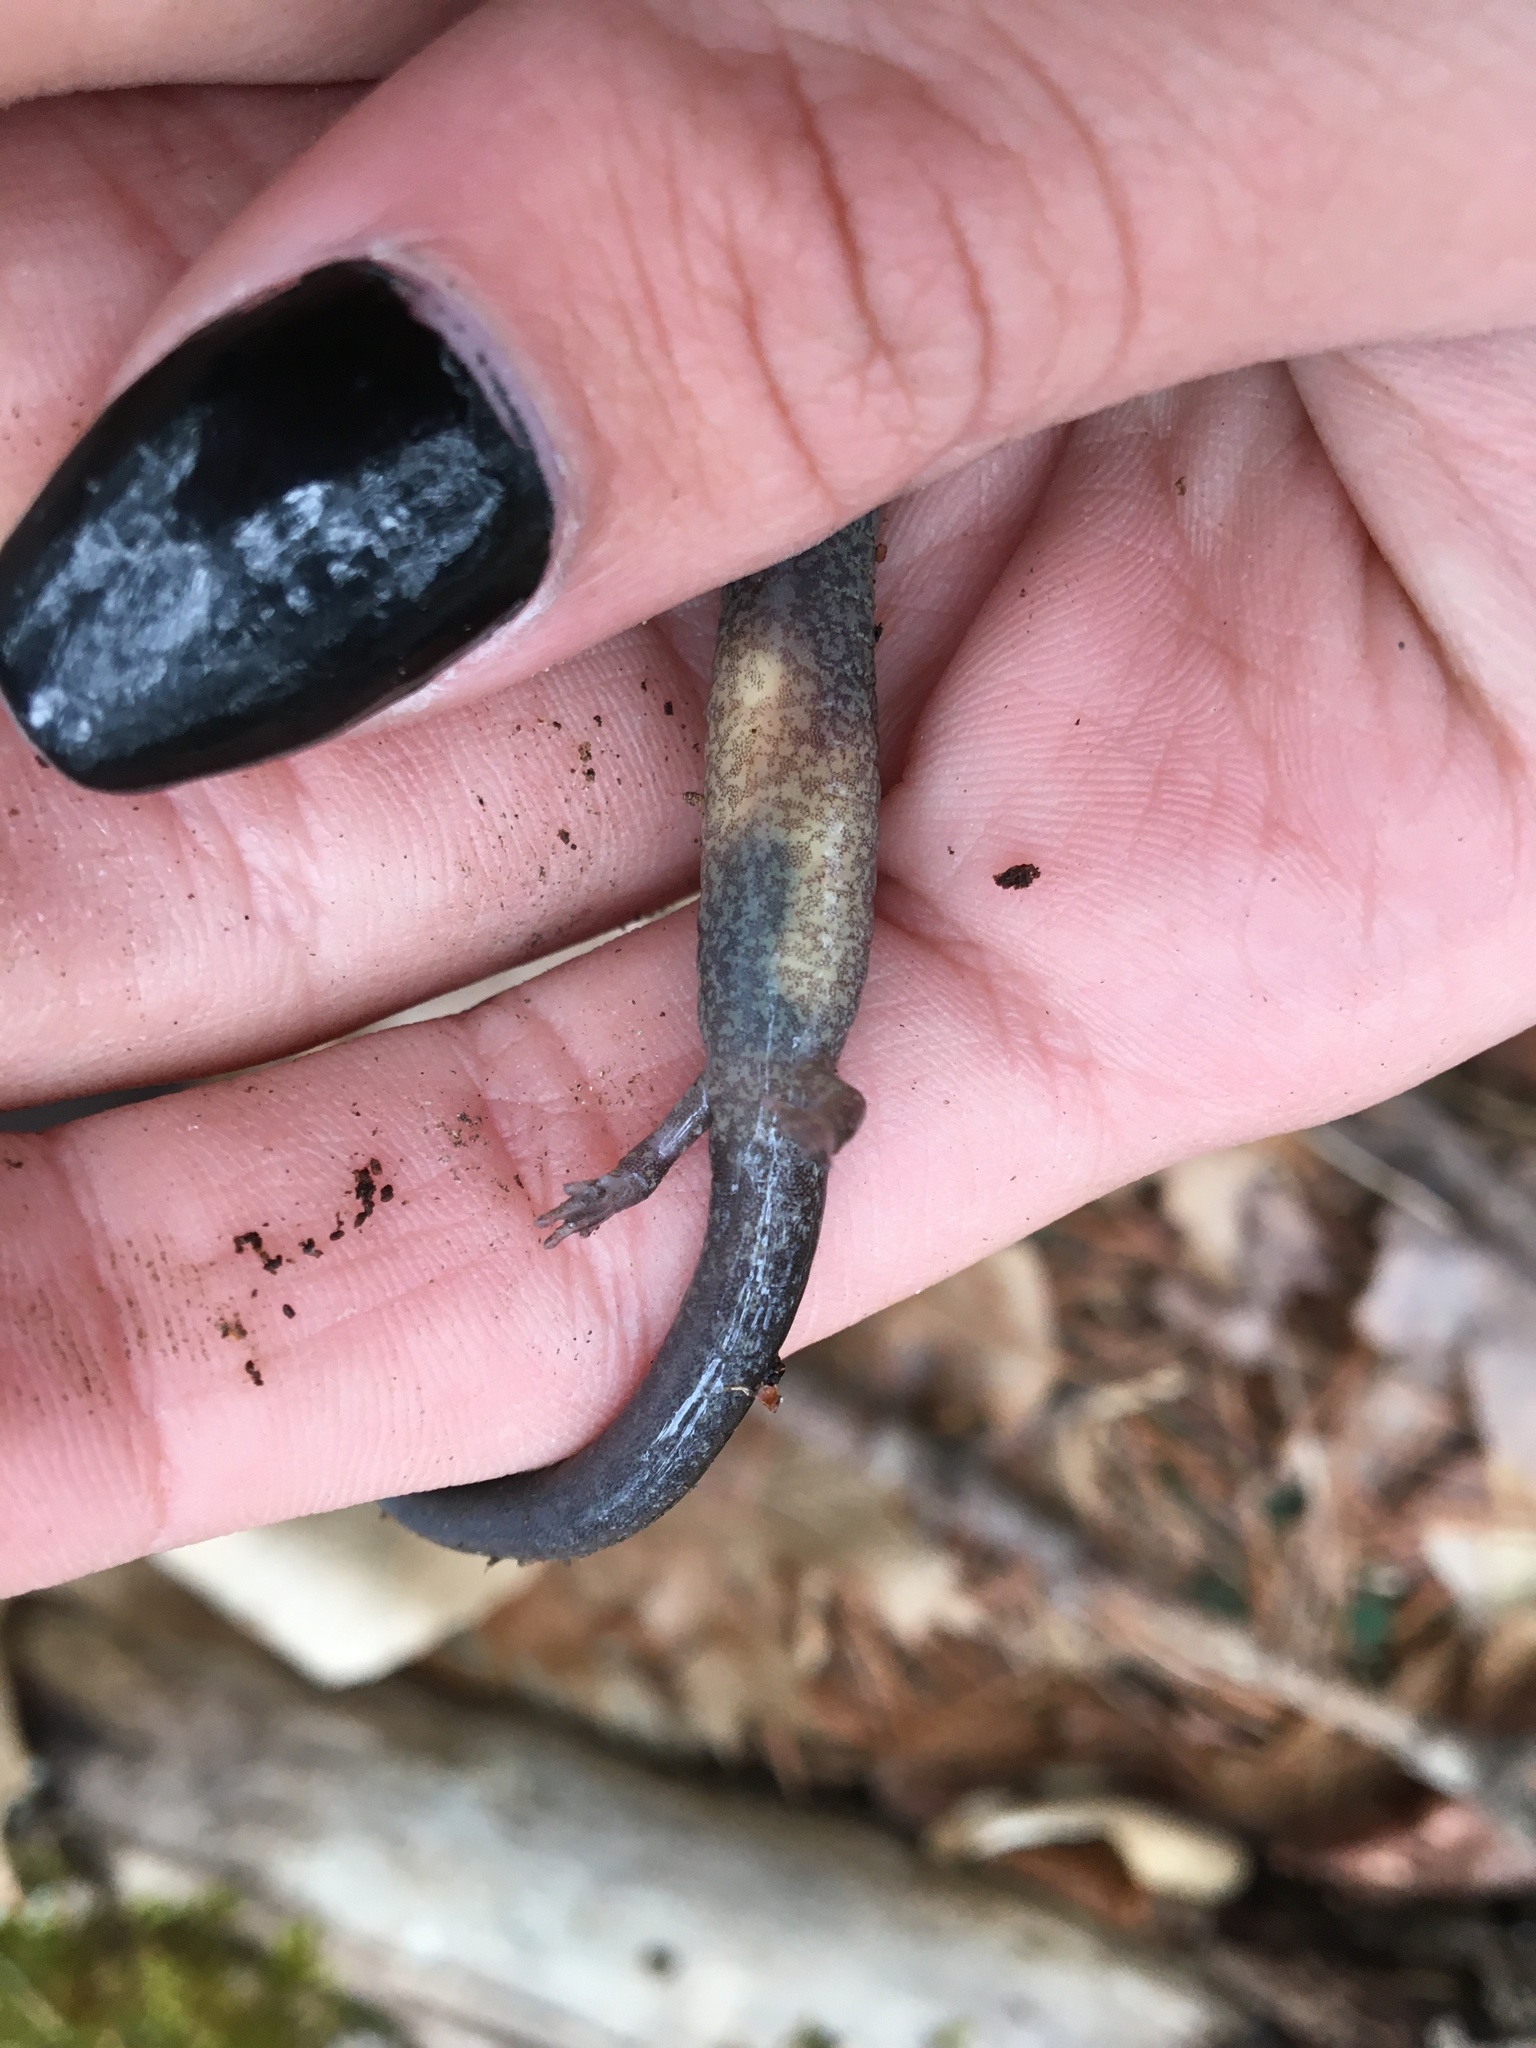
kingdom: Animalia
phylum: Chordata
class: Amphibia
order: Caudata
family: Plethodontidae
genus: Plethodon
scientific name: Plethodon cinereus
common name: Redback salamander
